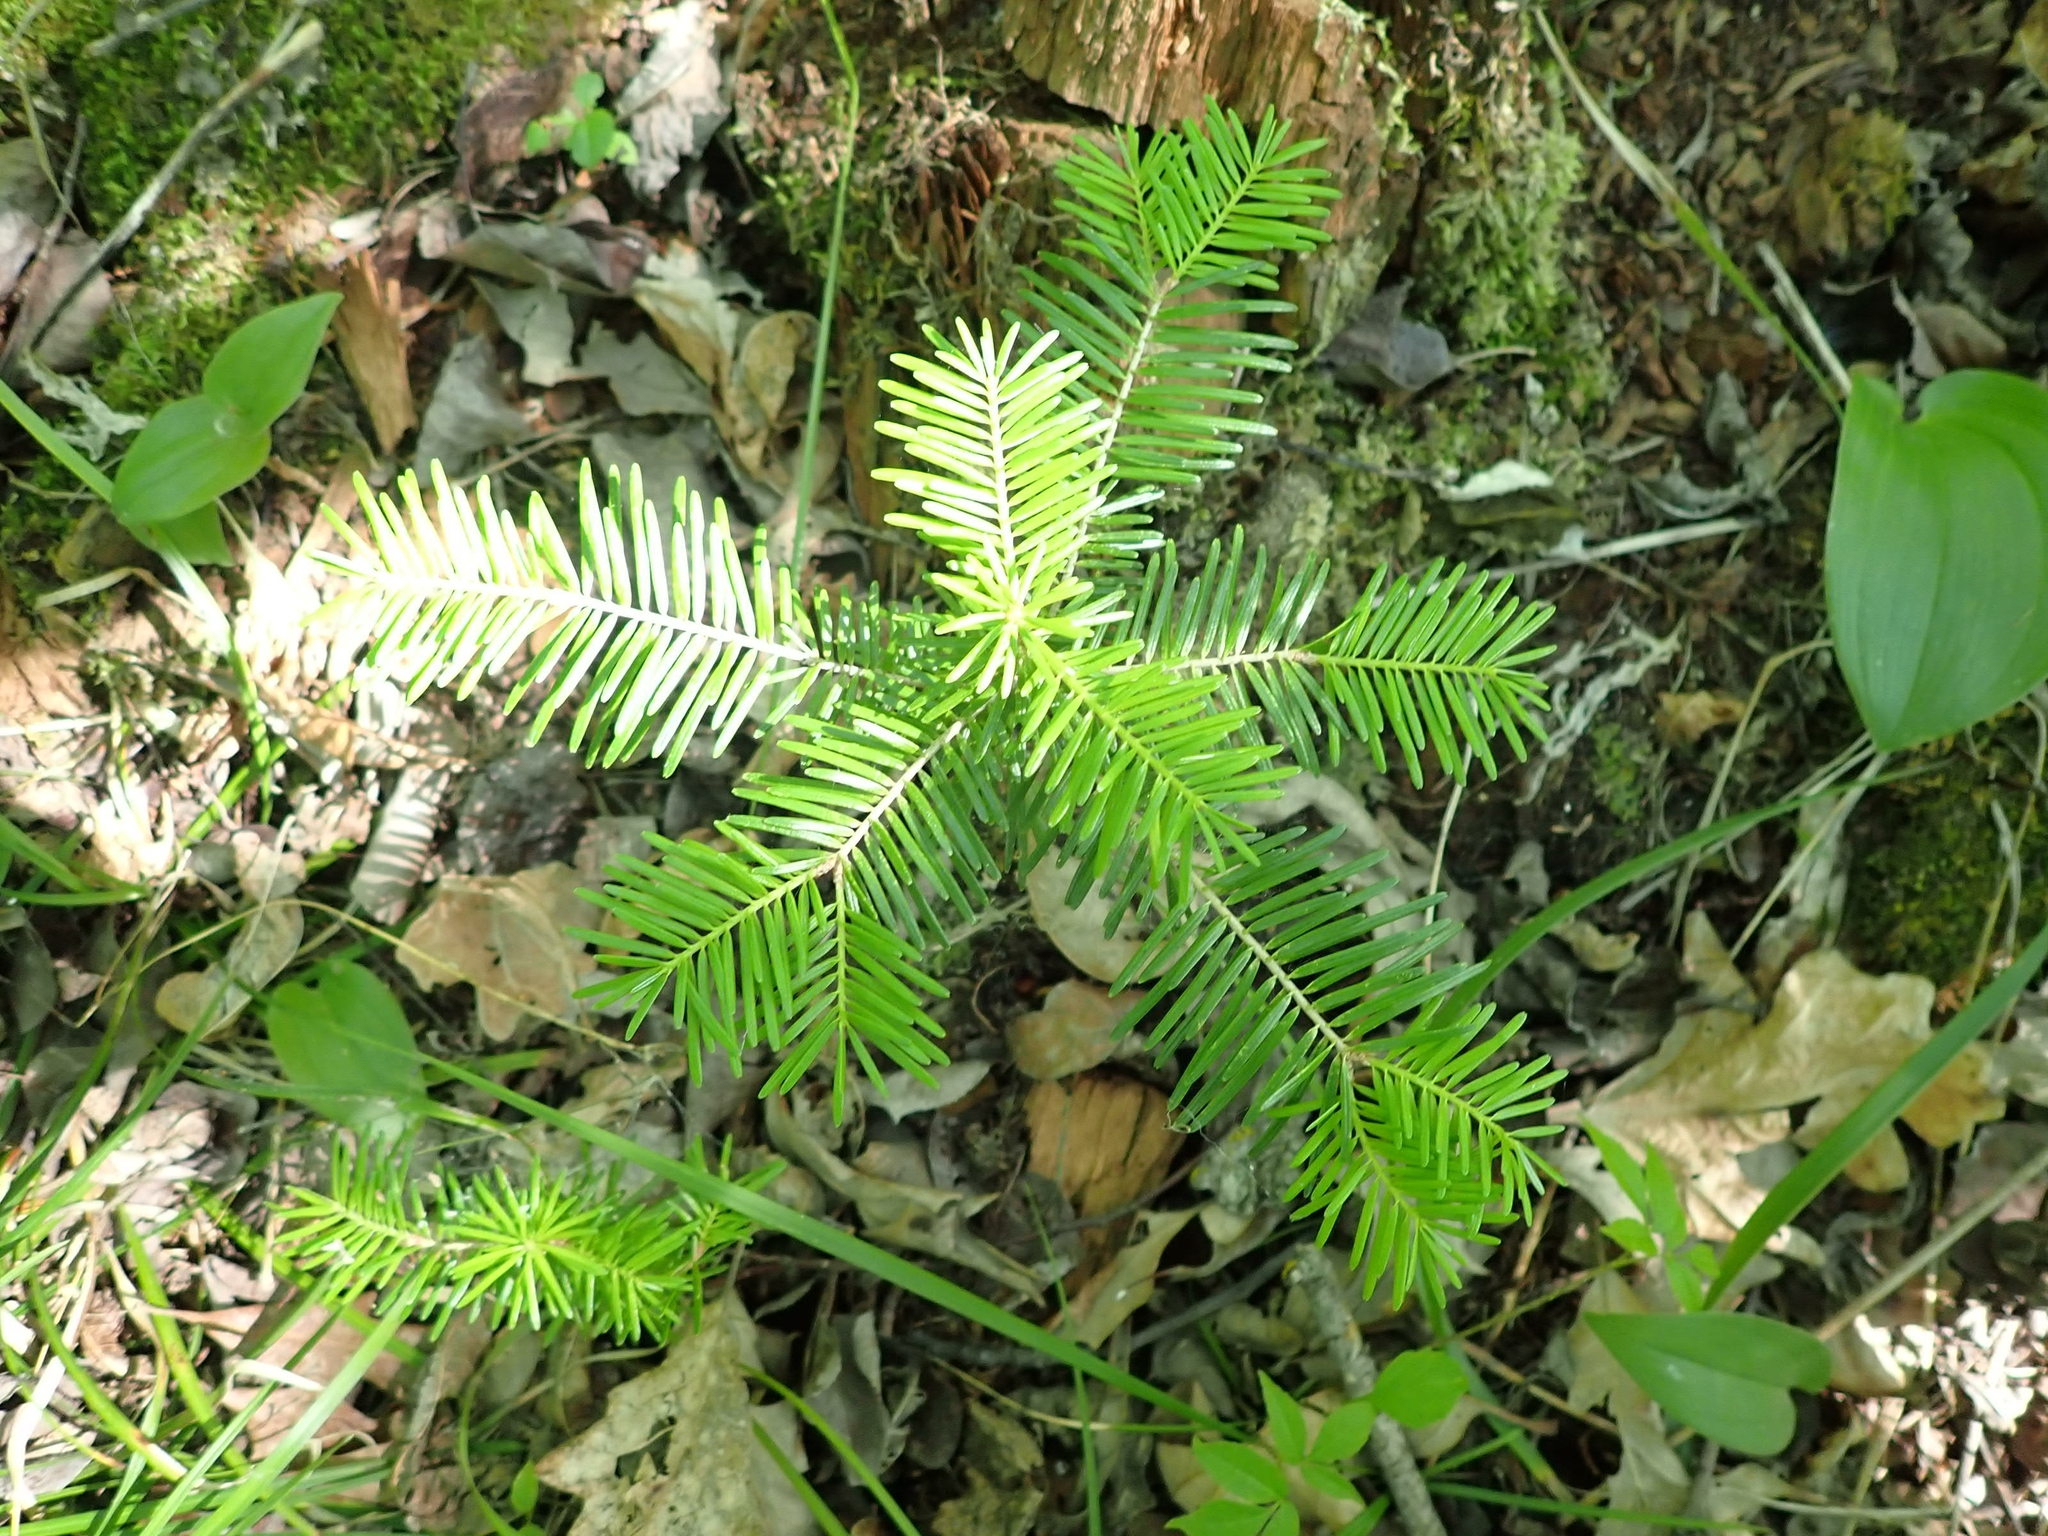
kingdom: Plantae
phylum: Tracheophyta
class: Pinopsida
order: Pinales
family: Pinaceae
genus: Abies
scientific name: Abies balsamea
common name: Balsam fir
